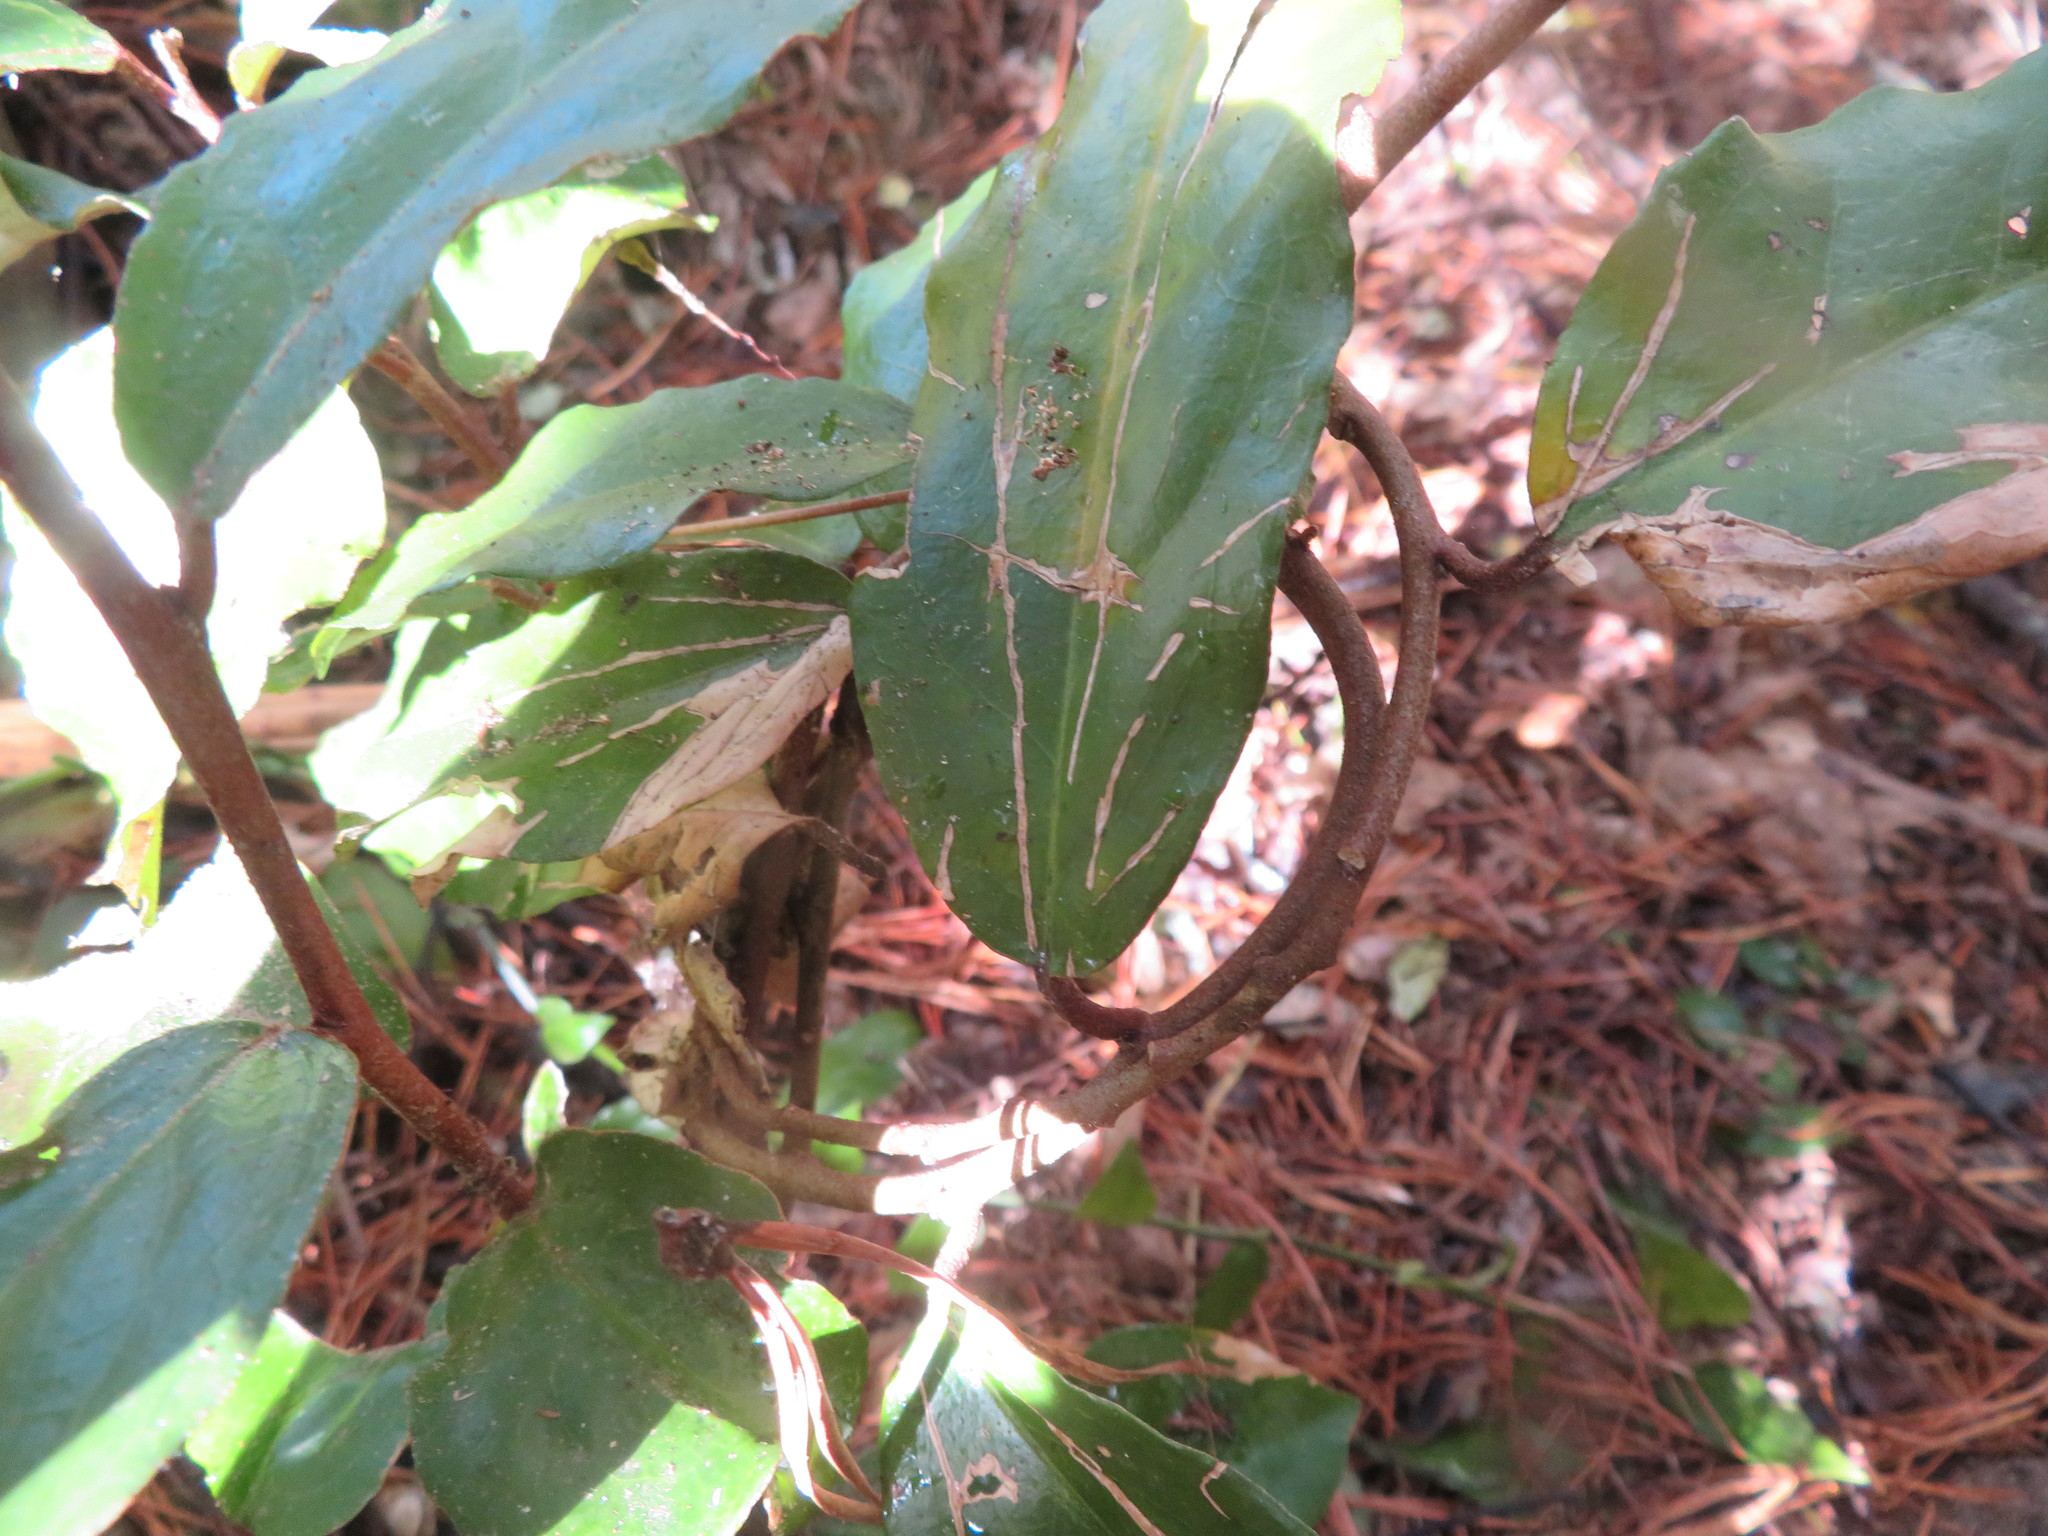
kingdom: Plantae
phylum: Tracheophyta
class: Magnoliopsida
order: Rosales
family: Elaeagnaceae
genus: Elaeagnus
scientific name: Elaeagnus reflexa
